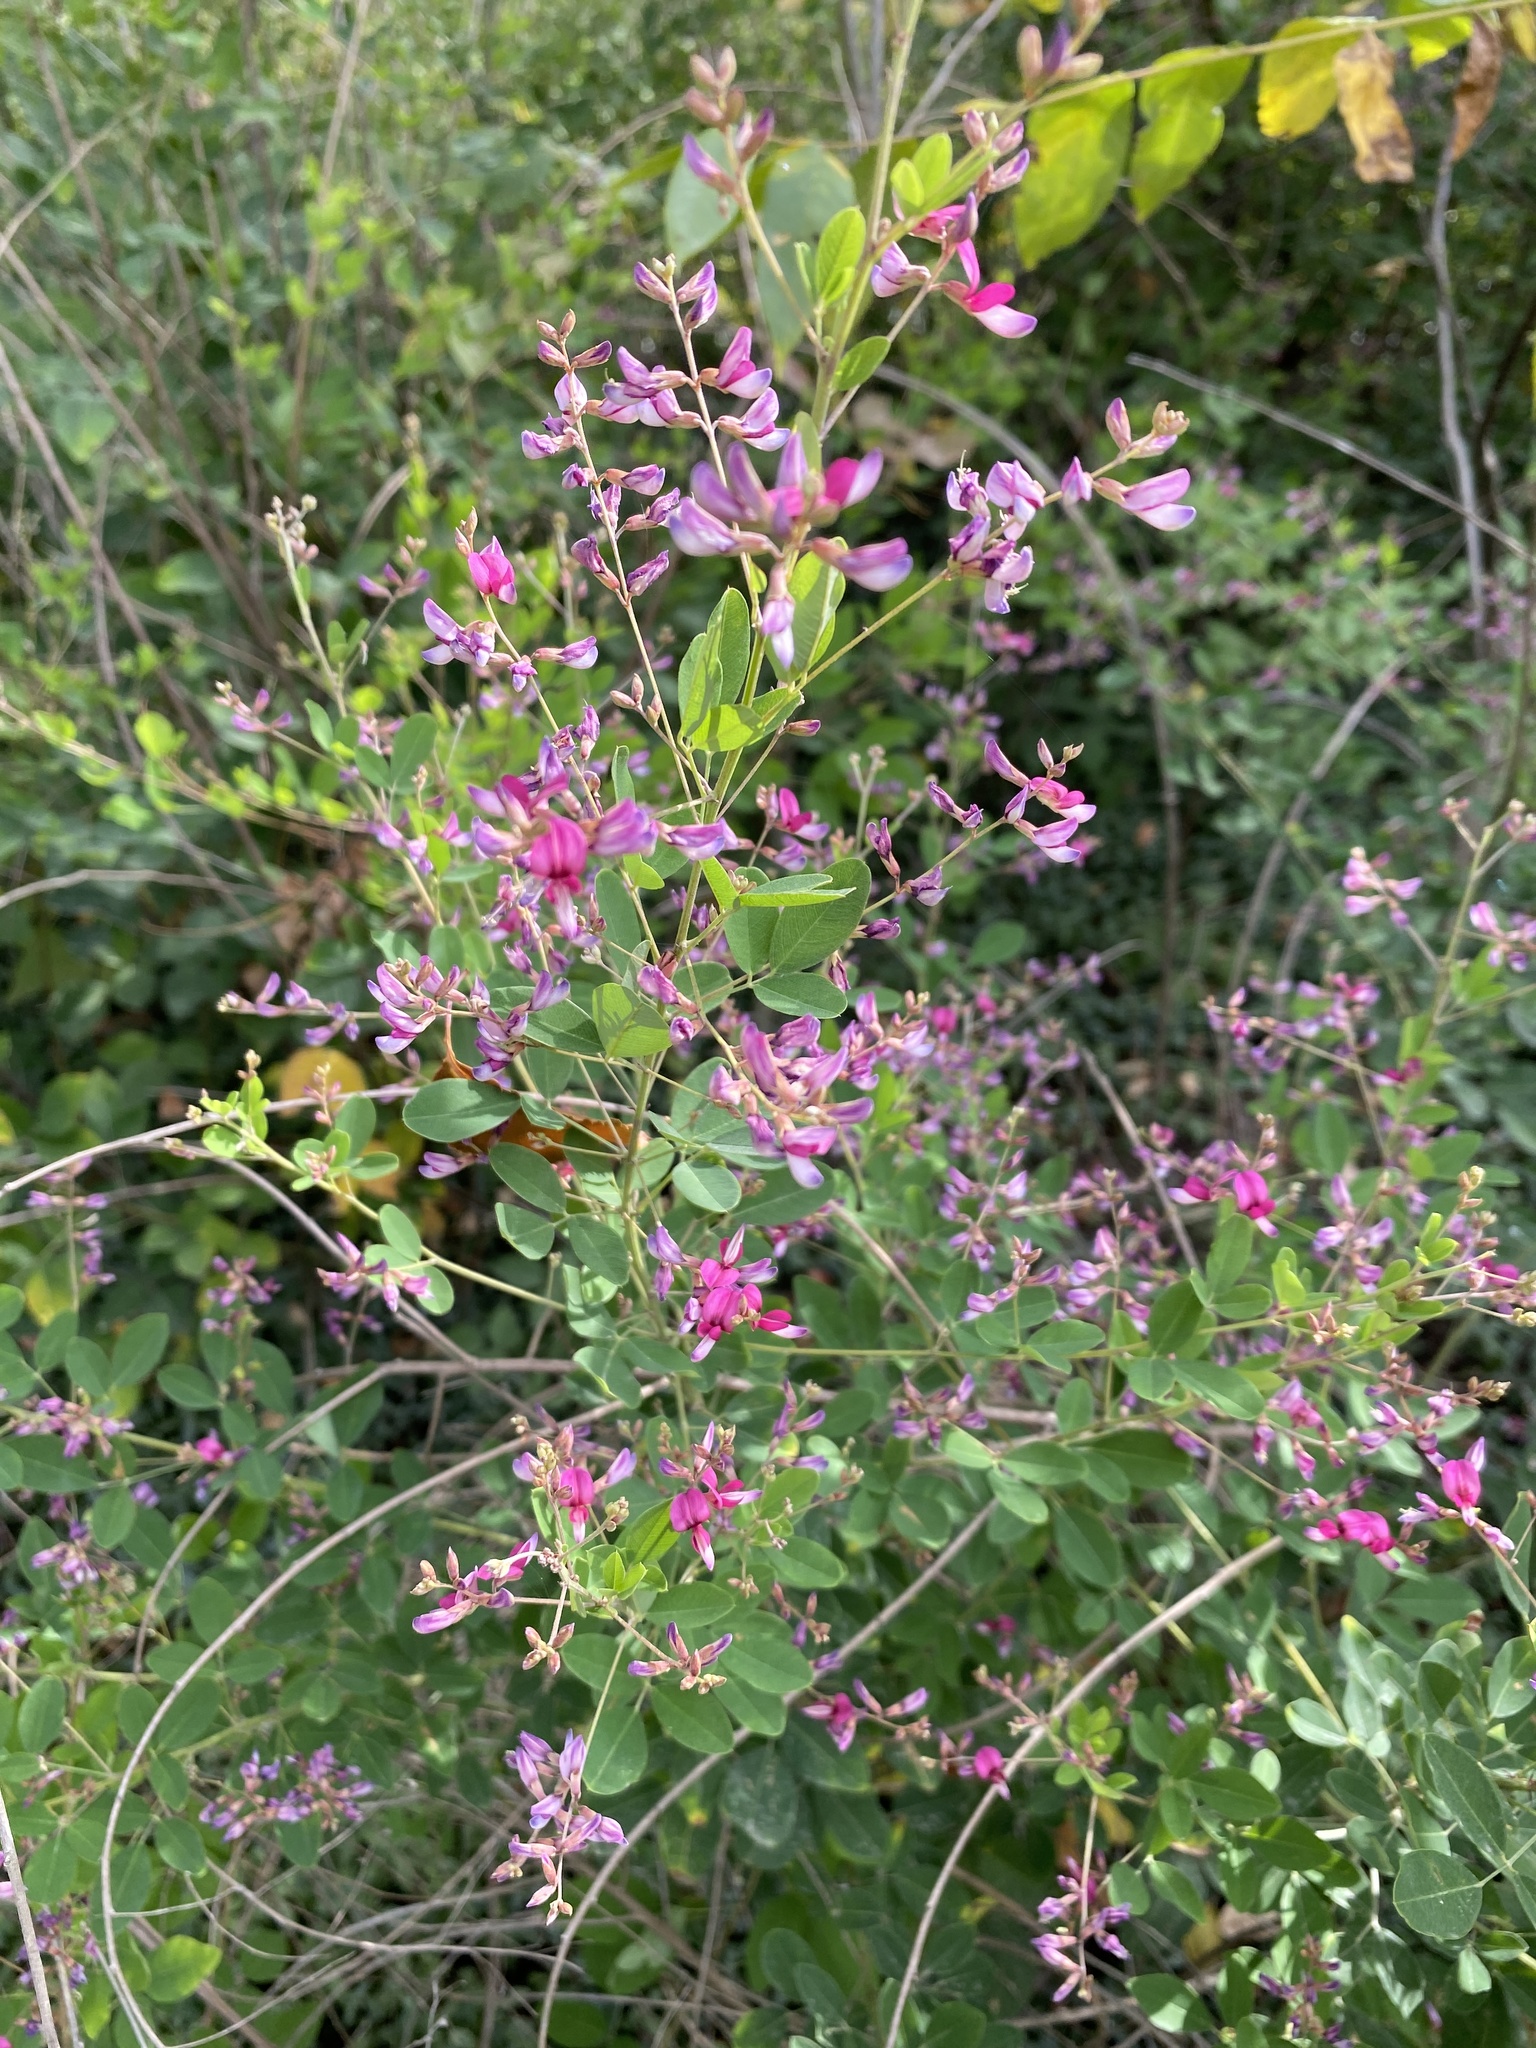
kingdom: Plantae
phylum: Tracheophyta
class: Magnoliopsida
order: Fabales
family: Fabaceae
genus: Lespedeza
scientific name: Lespedeza bicolor
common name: Shrub lespedeza
